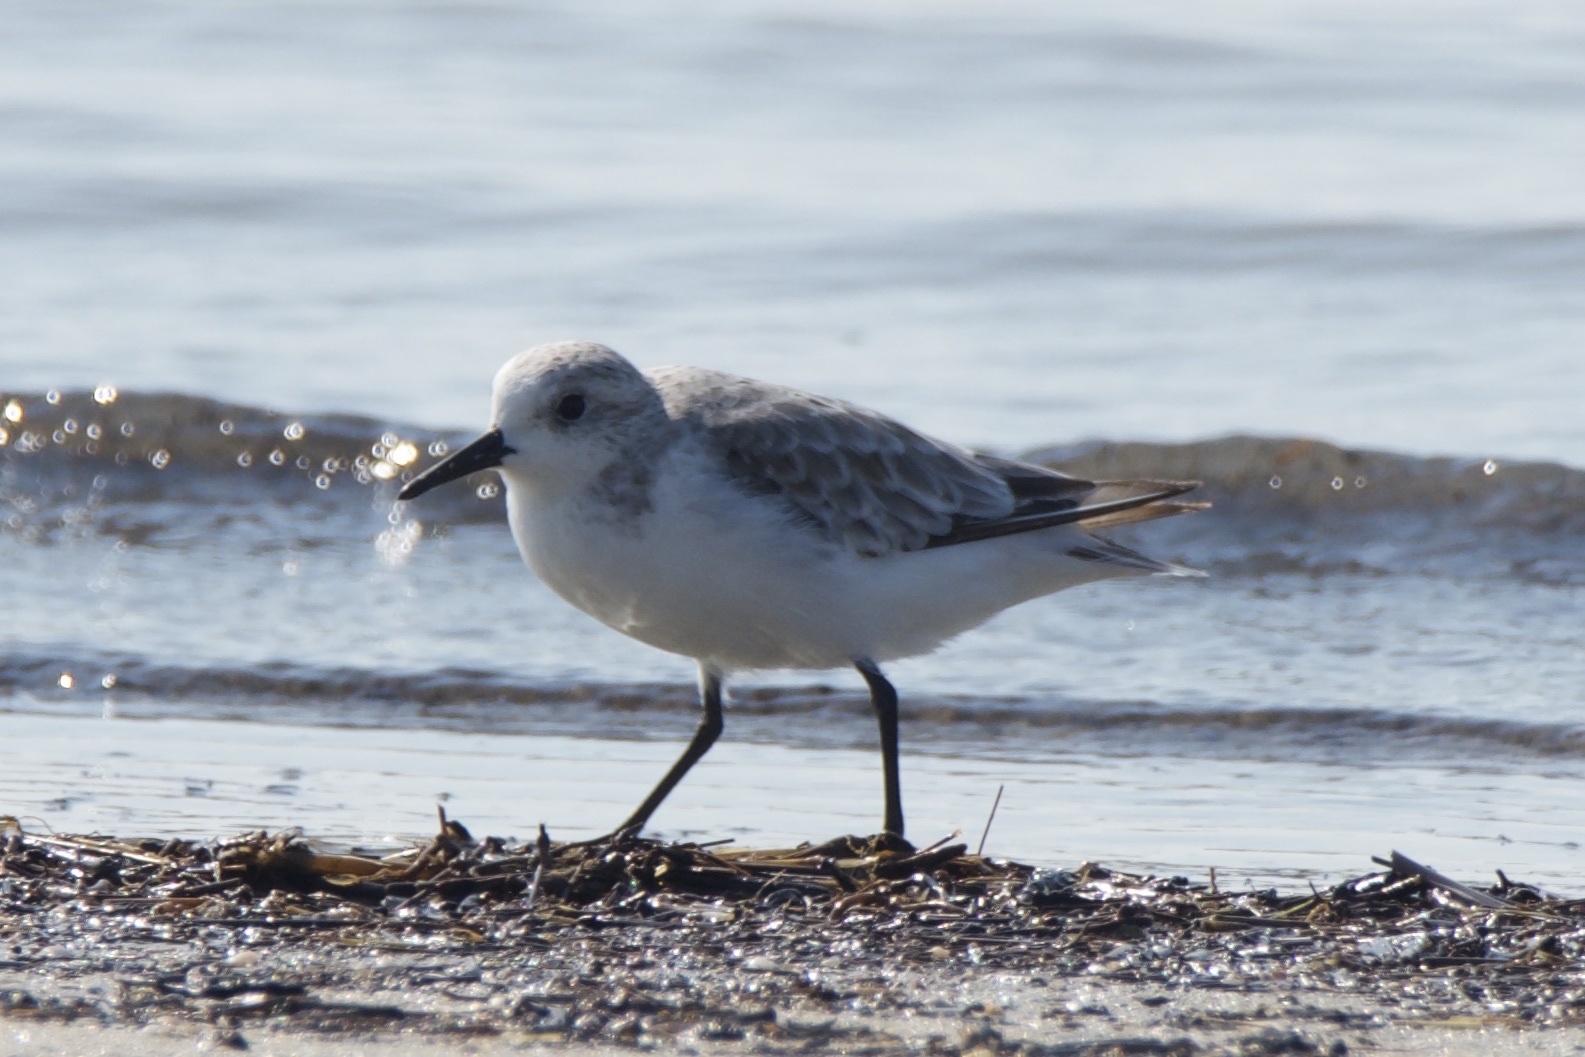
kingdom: Animalia
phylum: Chordata
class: Aves
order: Charadriiformes
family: Scolopacidae
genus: Calidris
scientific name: Calidris alba
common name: Sanderling
